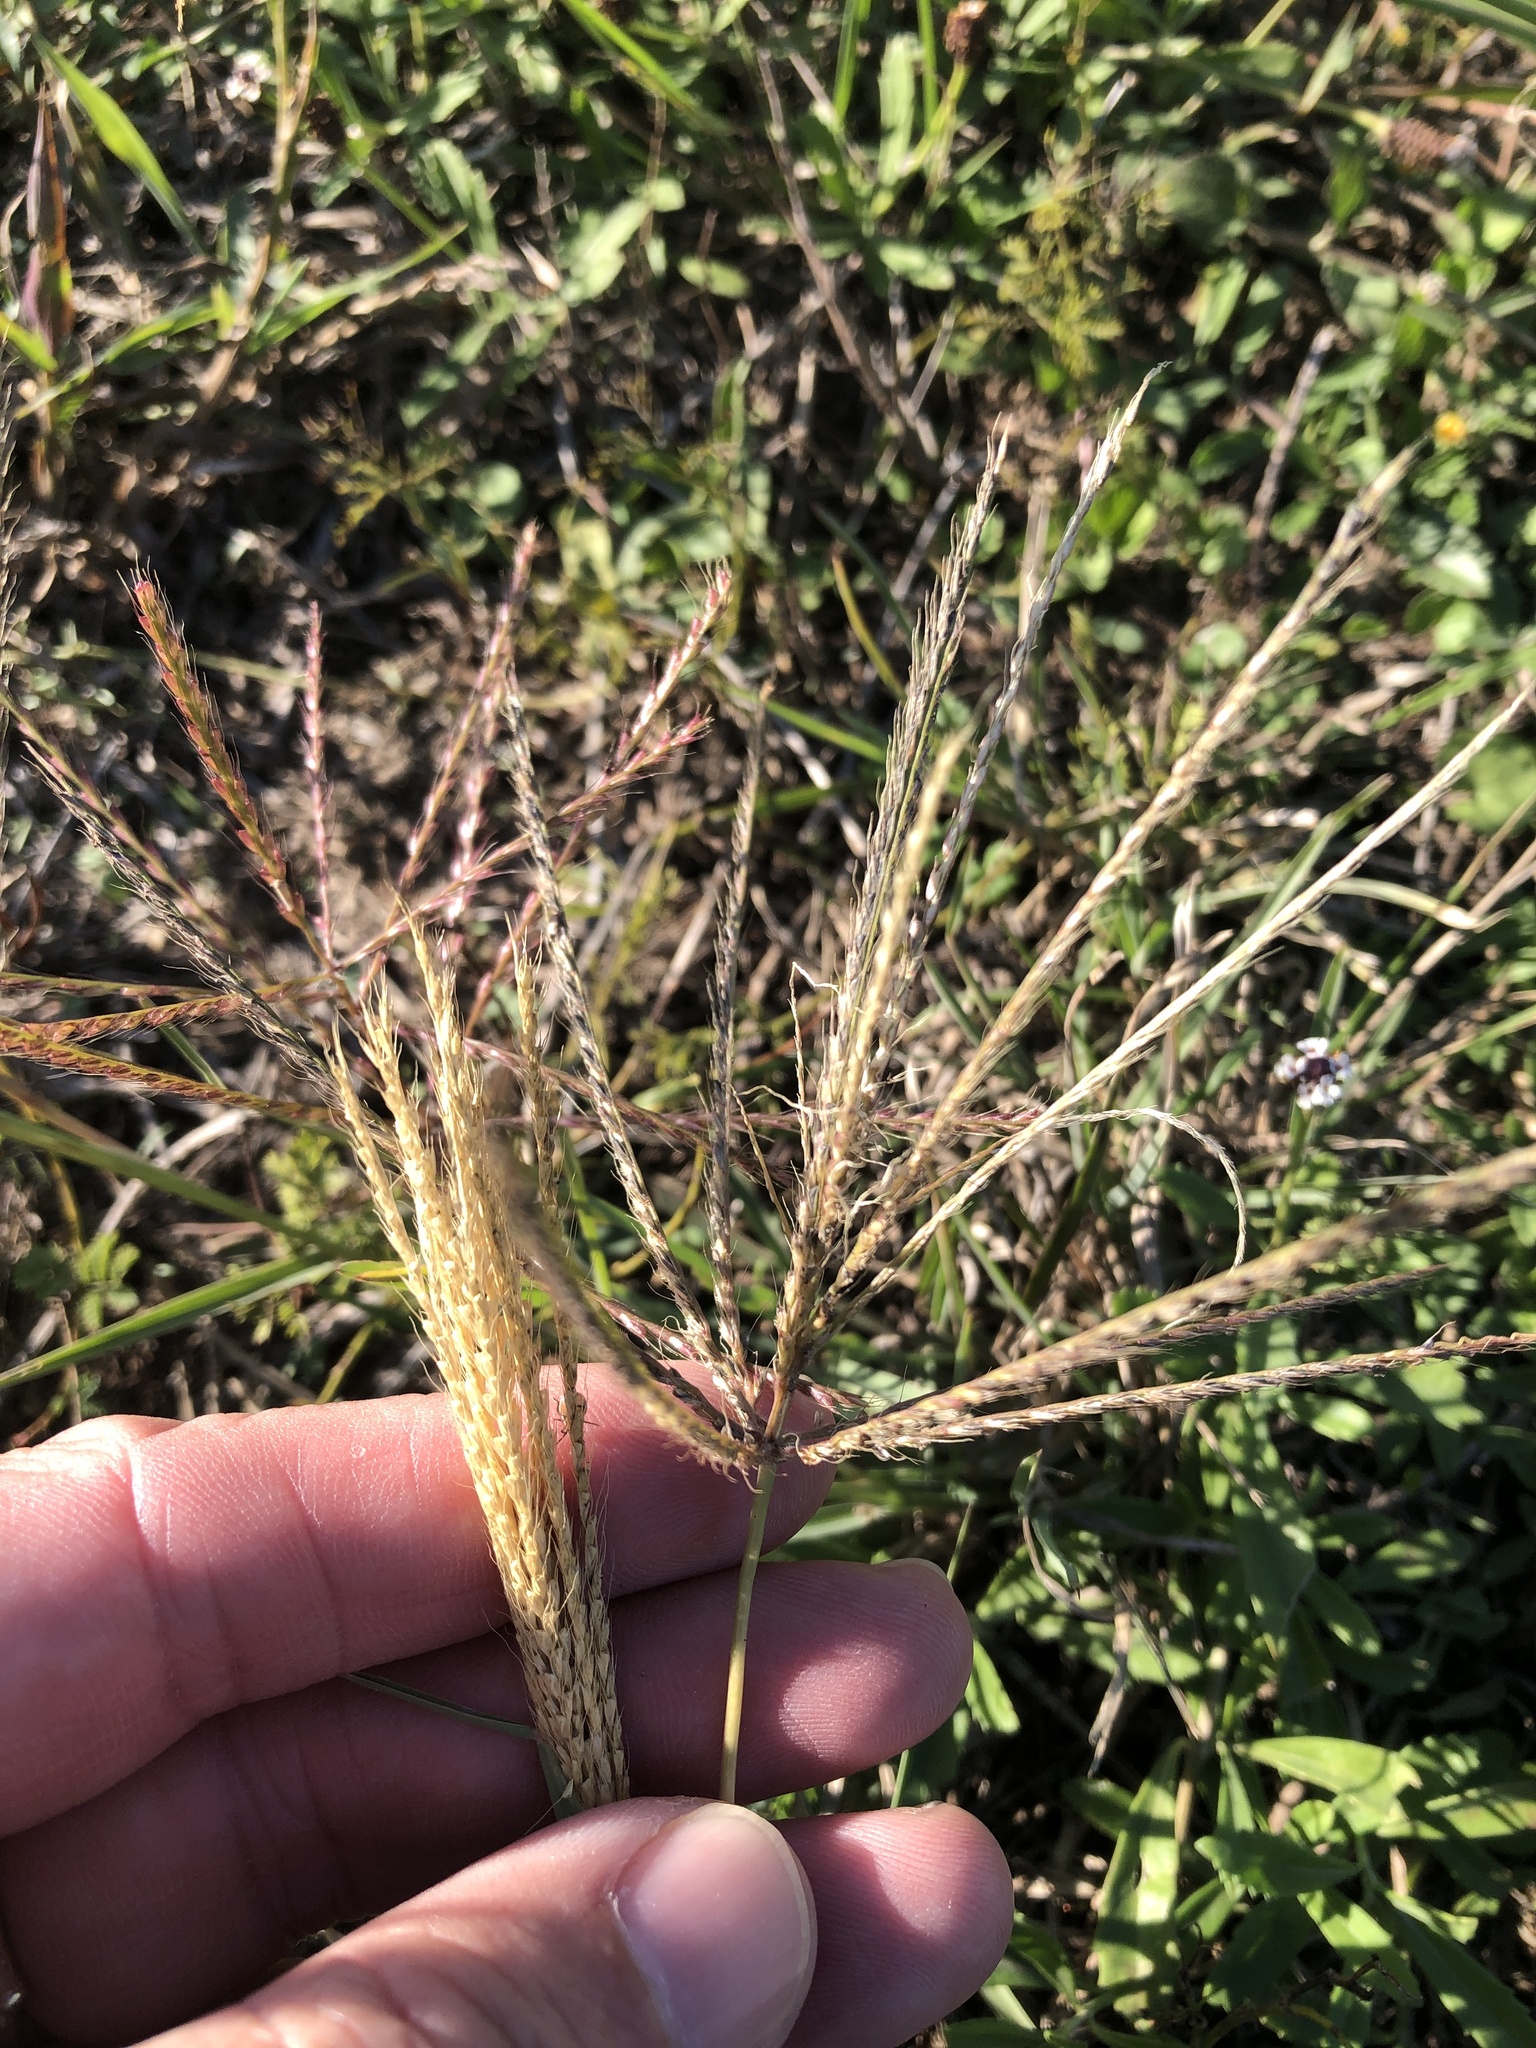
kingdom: Plantae
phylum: Tracheophyta
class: Liliopsida
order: Poales
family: Poaceae
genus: Chloris
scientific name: Chloris verticillata
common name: Tumble windmill grass
